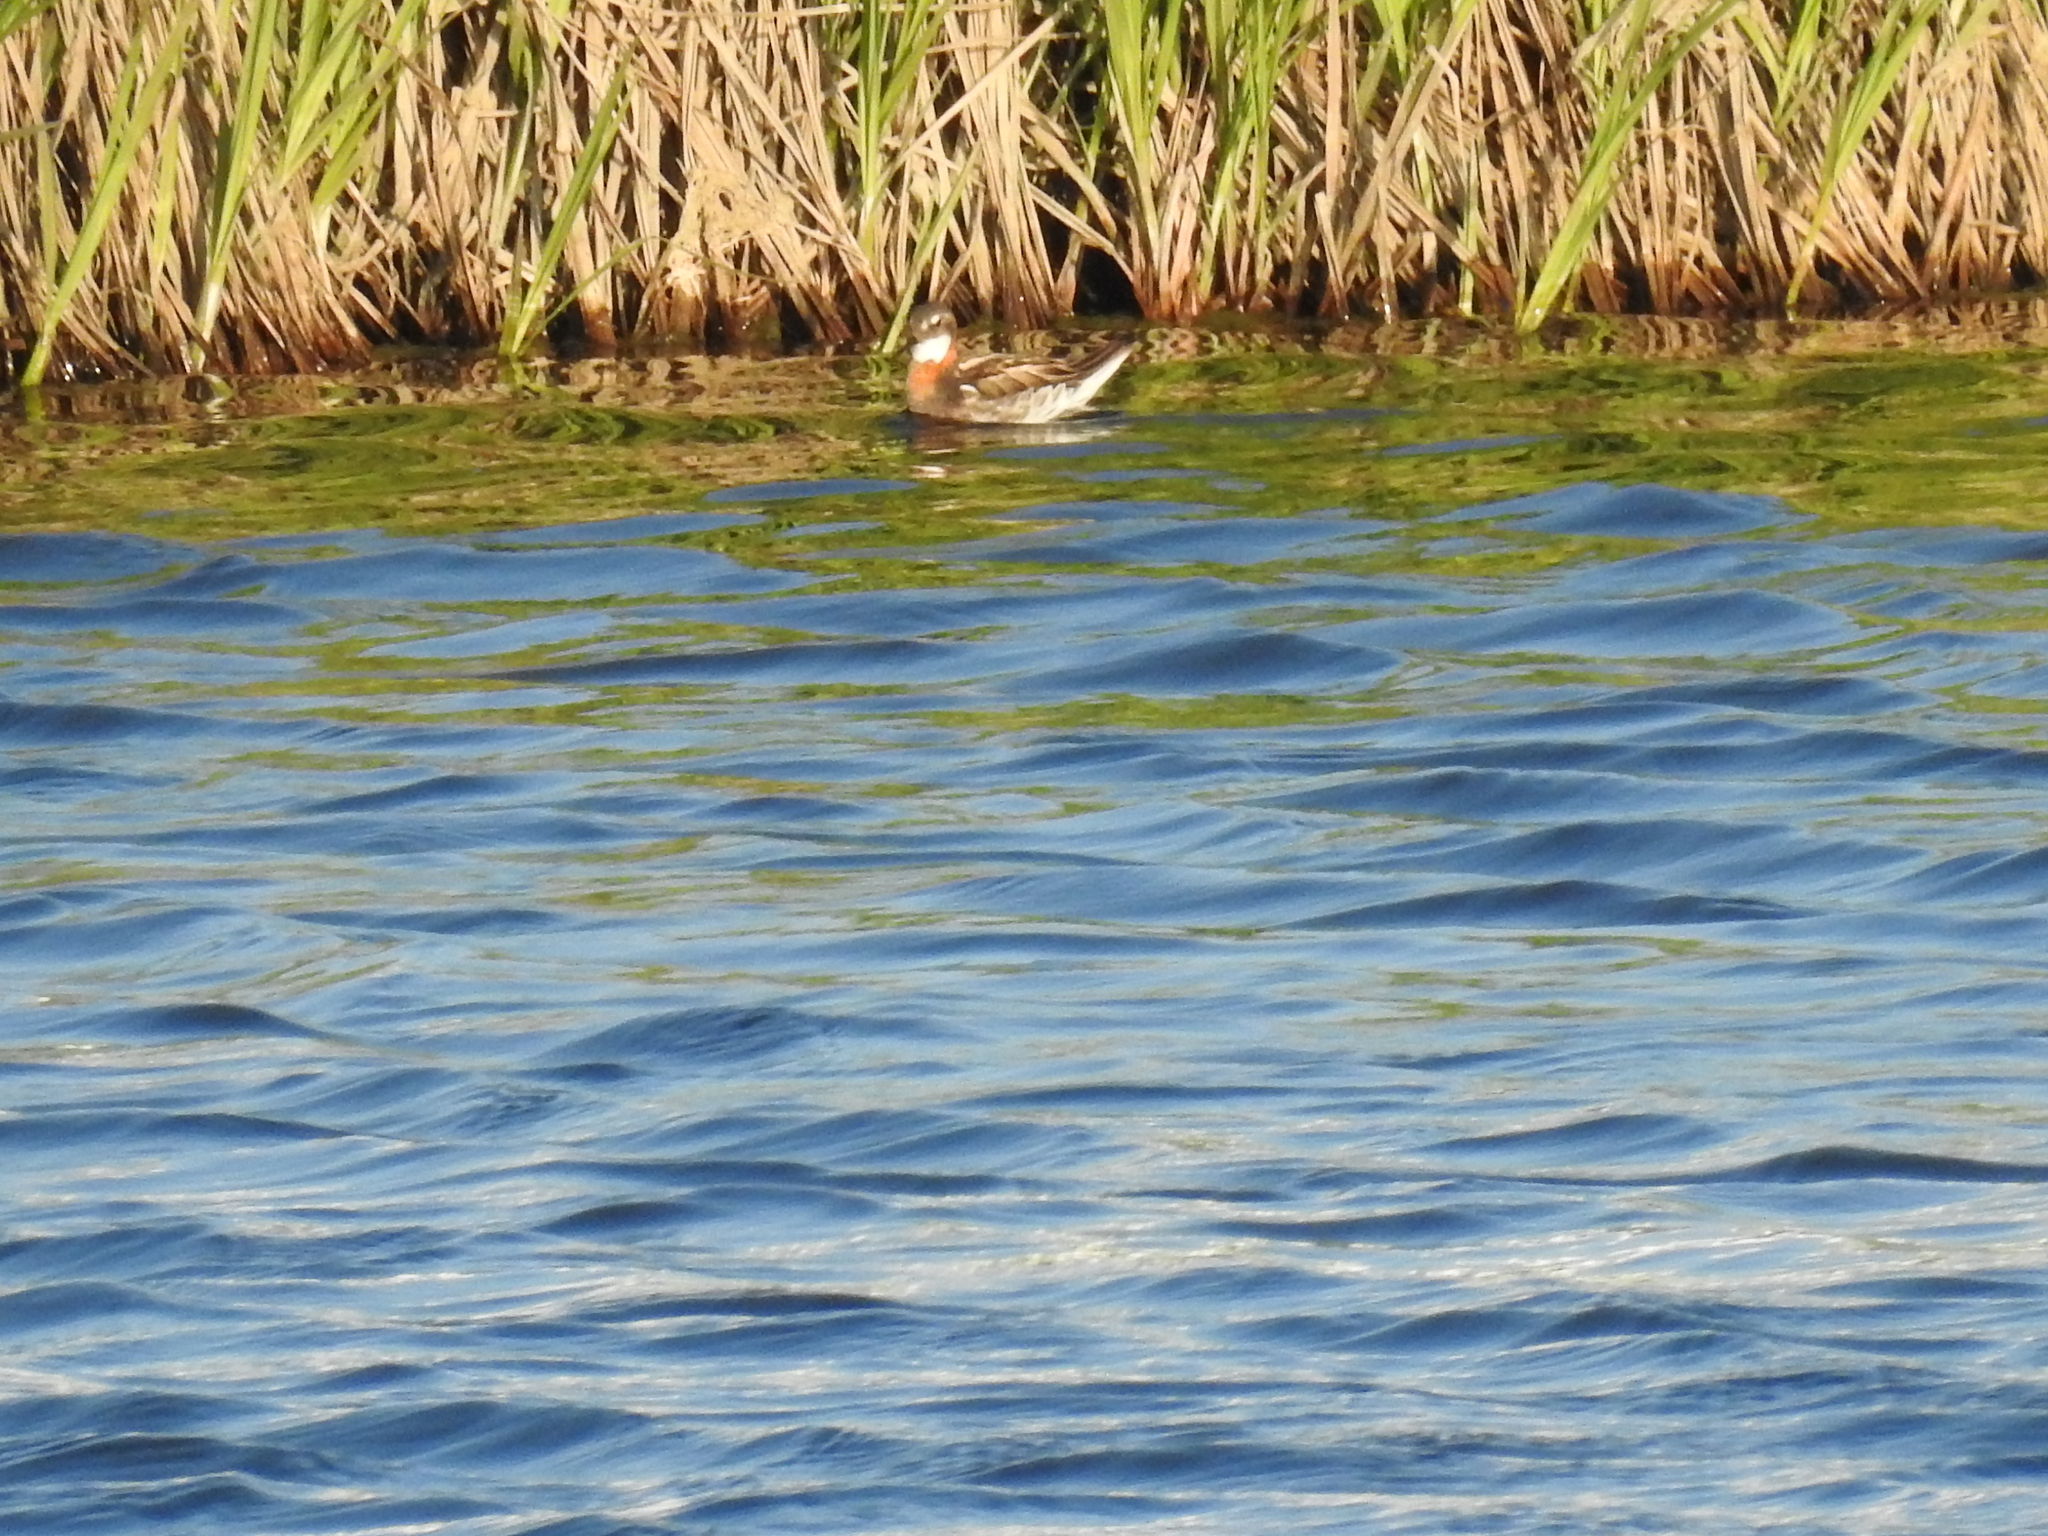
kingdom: Animalia
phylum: Chordata
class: Aves
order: Charadriiformes
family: Scolopacidae
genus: Phalaropus
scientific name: Phalaropus lobatus
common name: Red-necked phalarope
